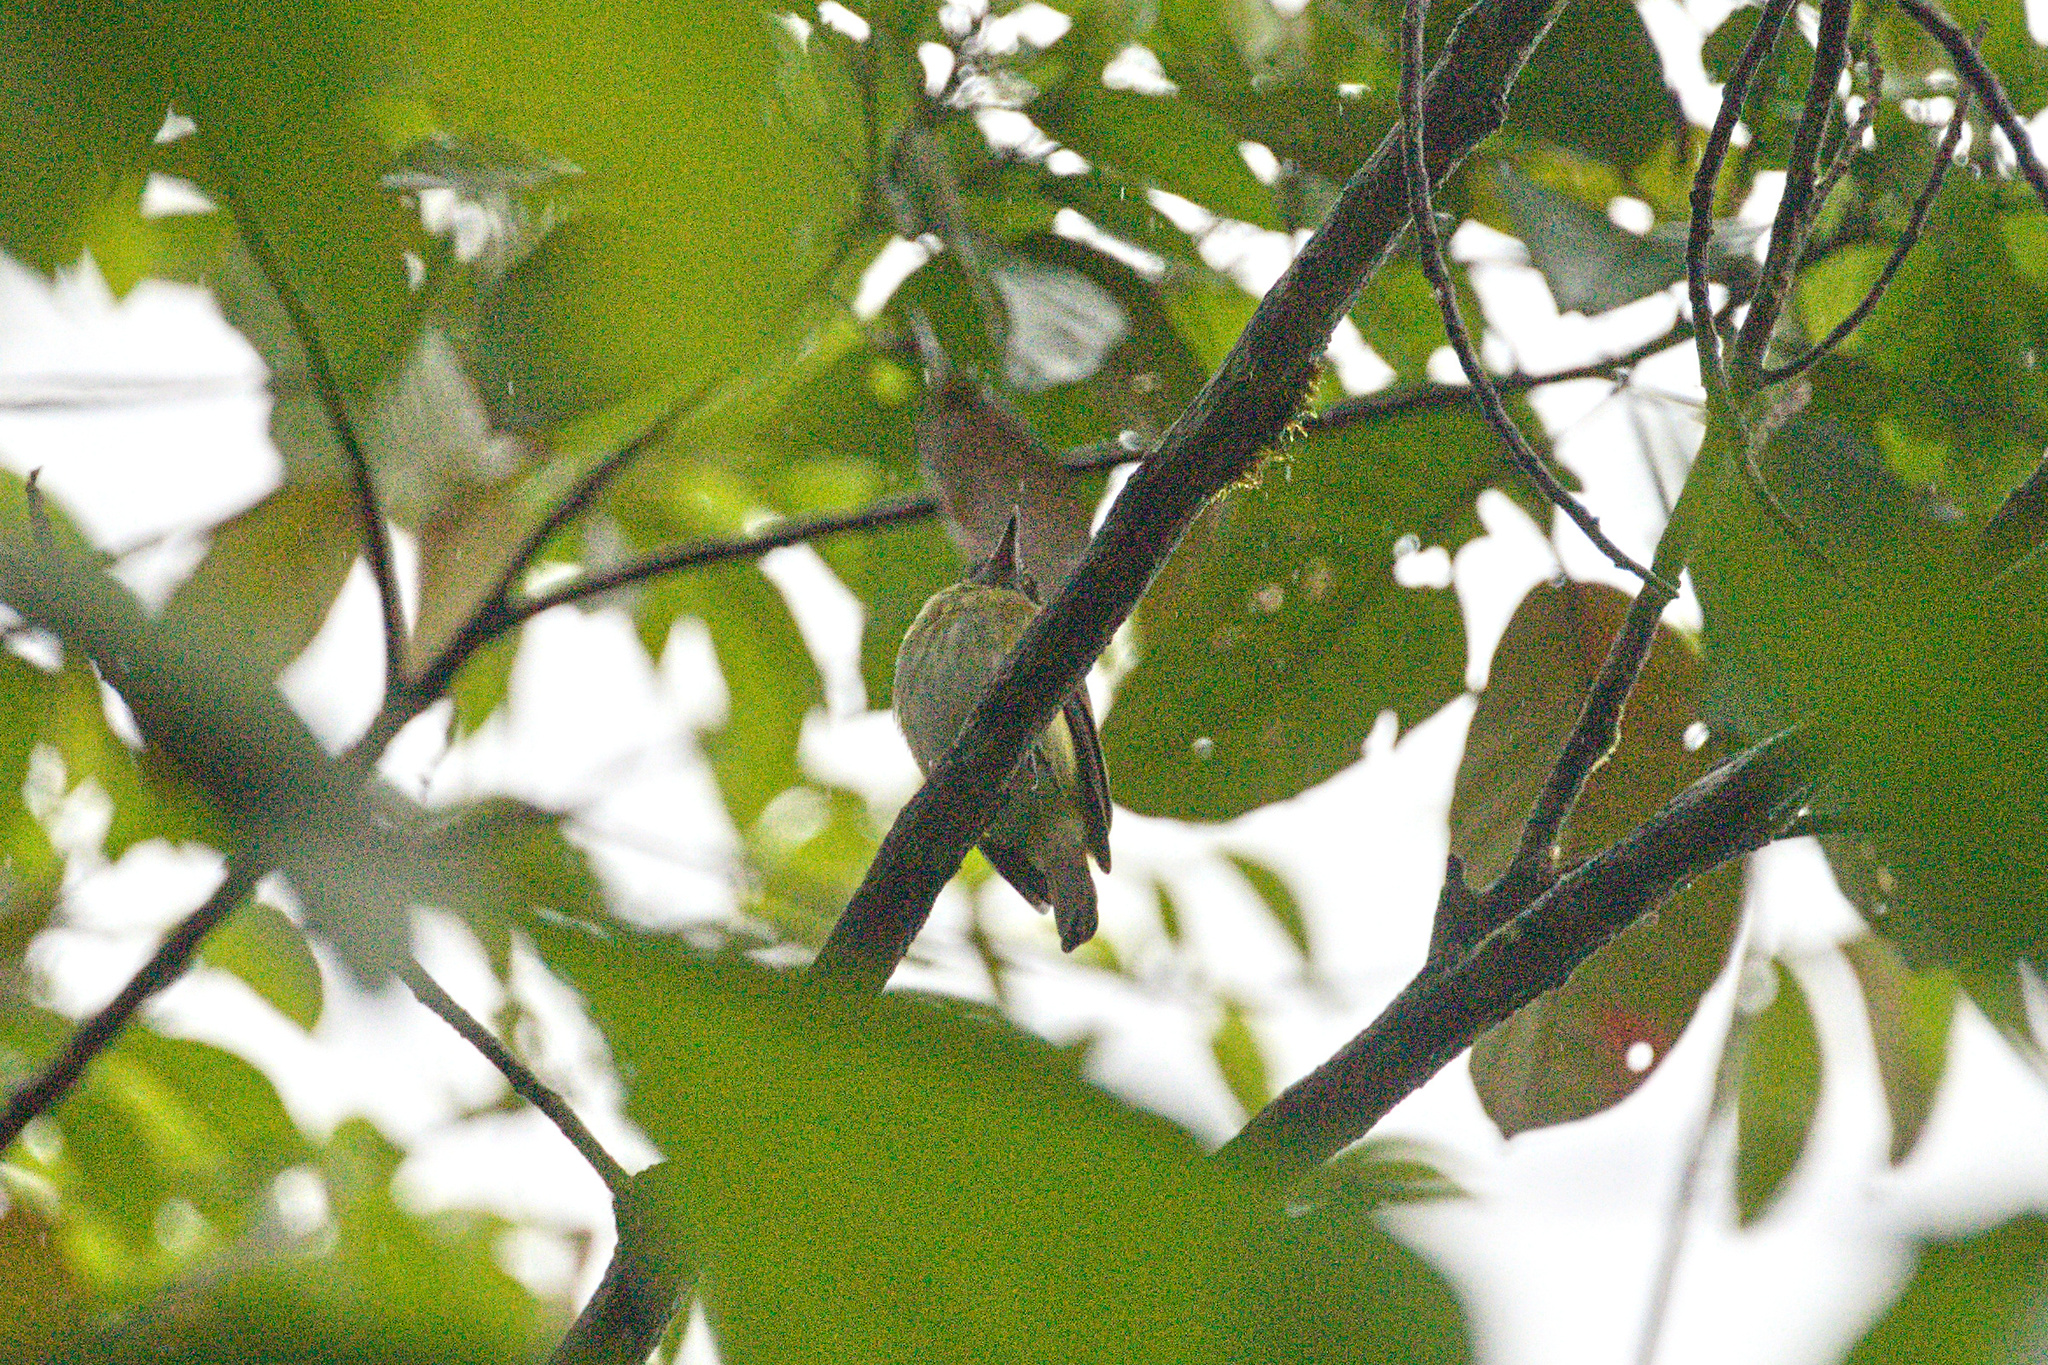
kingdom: Animalia
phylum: Chordata
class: Aves
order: Passeriformes
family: Tyrannidae
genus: Attila
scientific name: Attila spadiceus
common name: Bright-rumped attila
